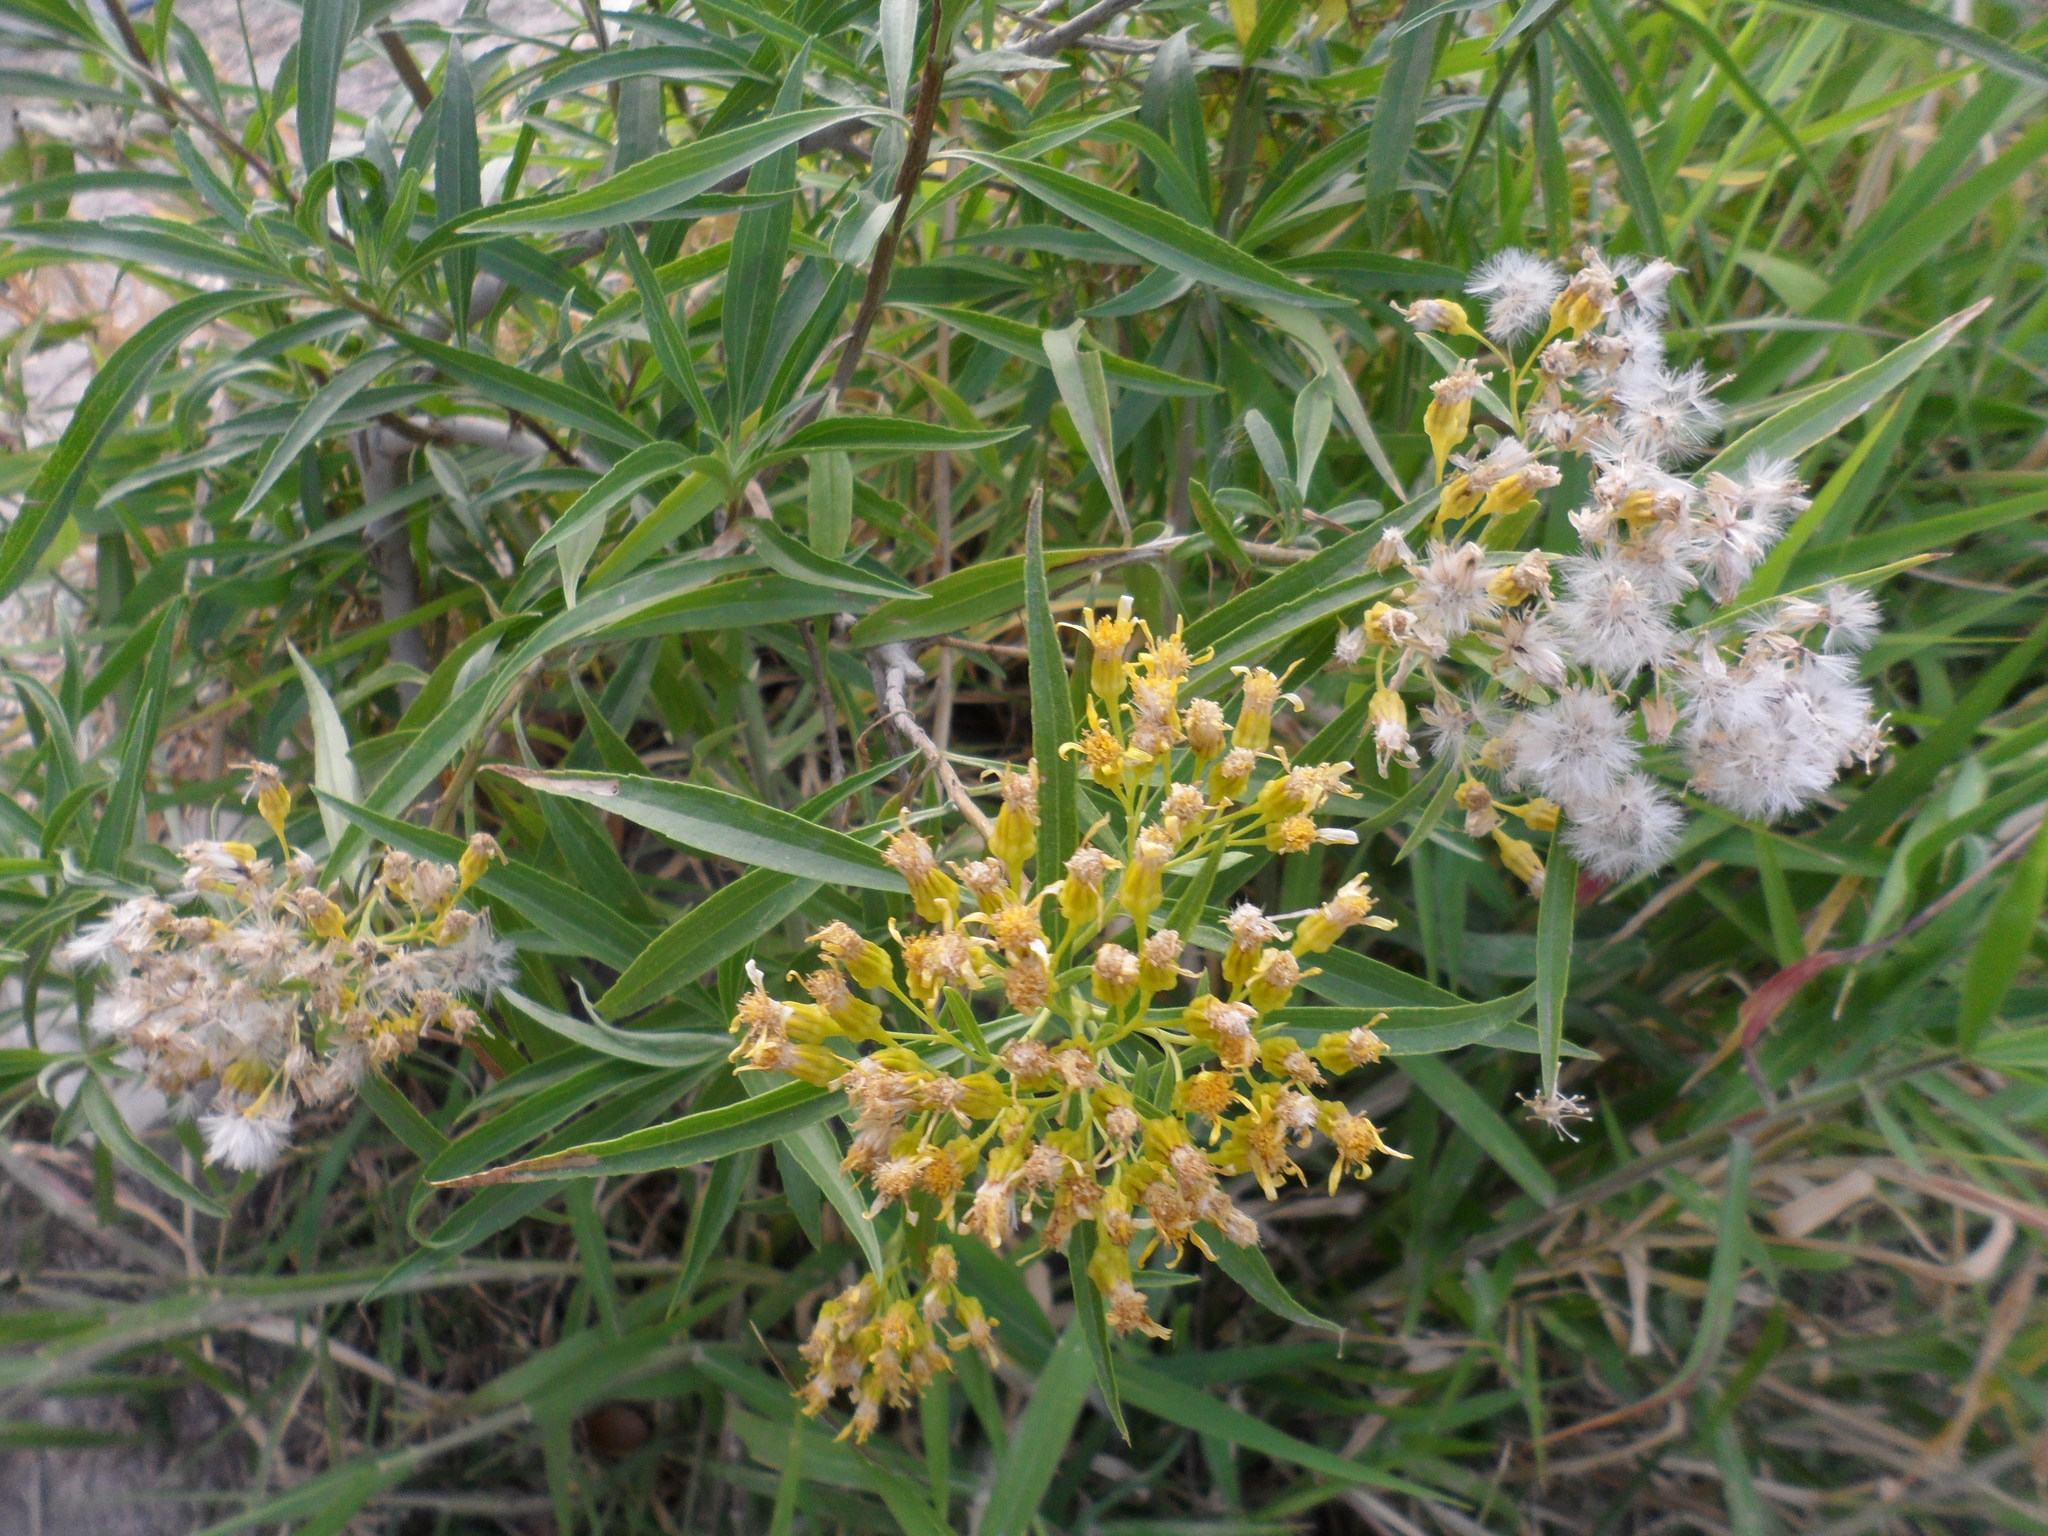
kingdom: Plantae
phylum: Tracheophyta
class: Magnoliopsida
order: Asterales
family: Asteraceae
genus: Barkleyanthus
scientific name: Barkleyanthus salicifolius
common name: Willow ragwort
